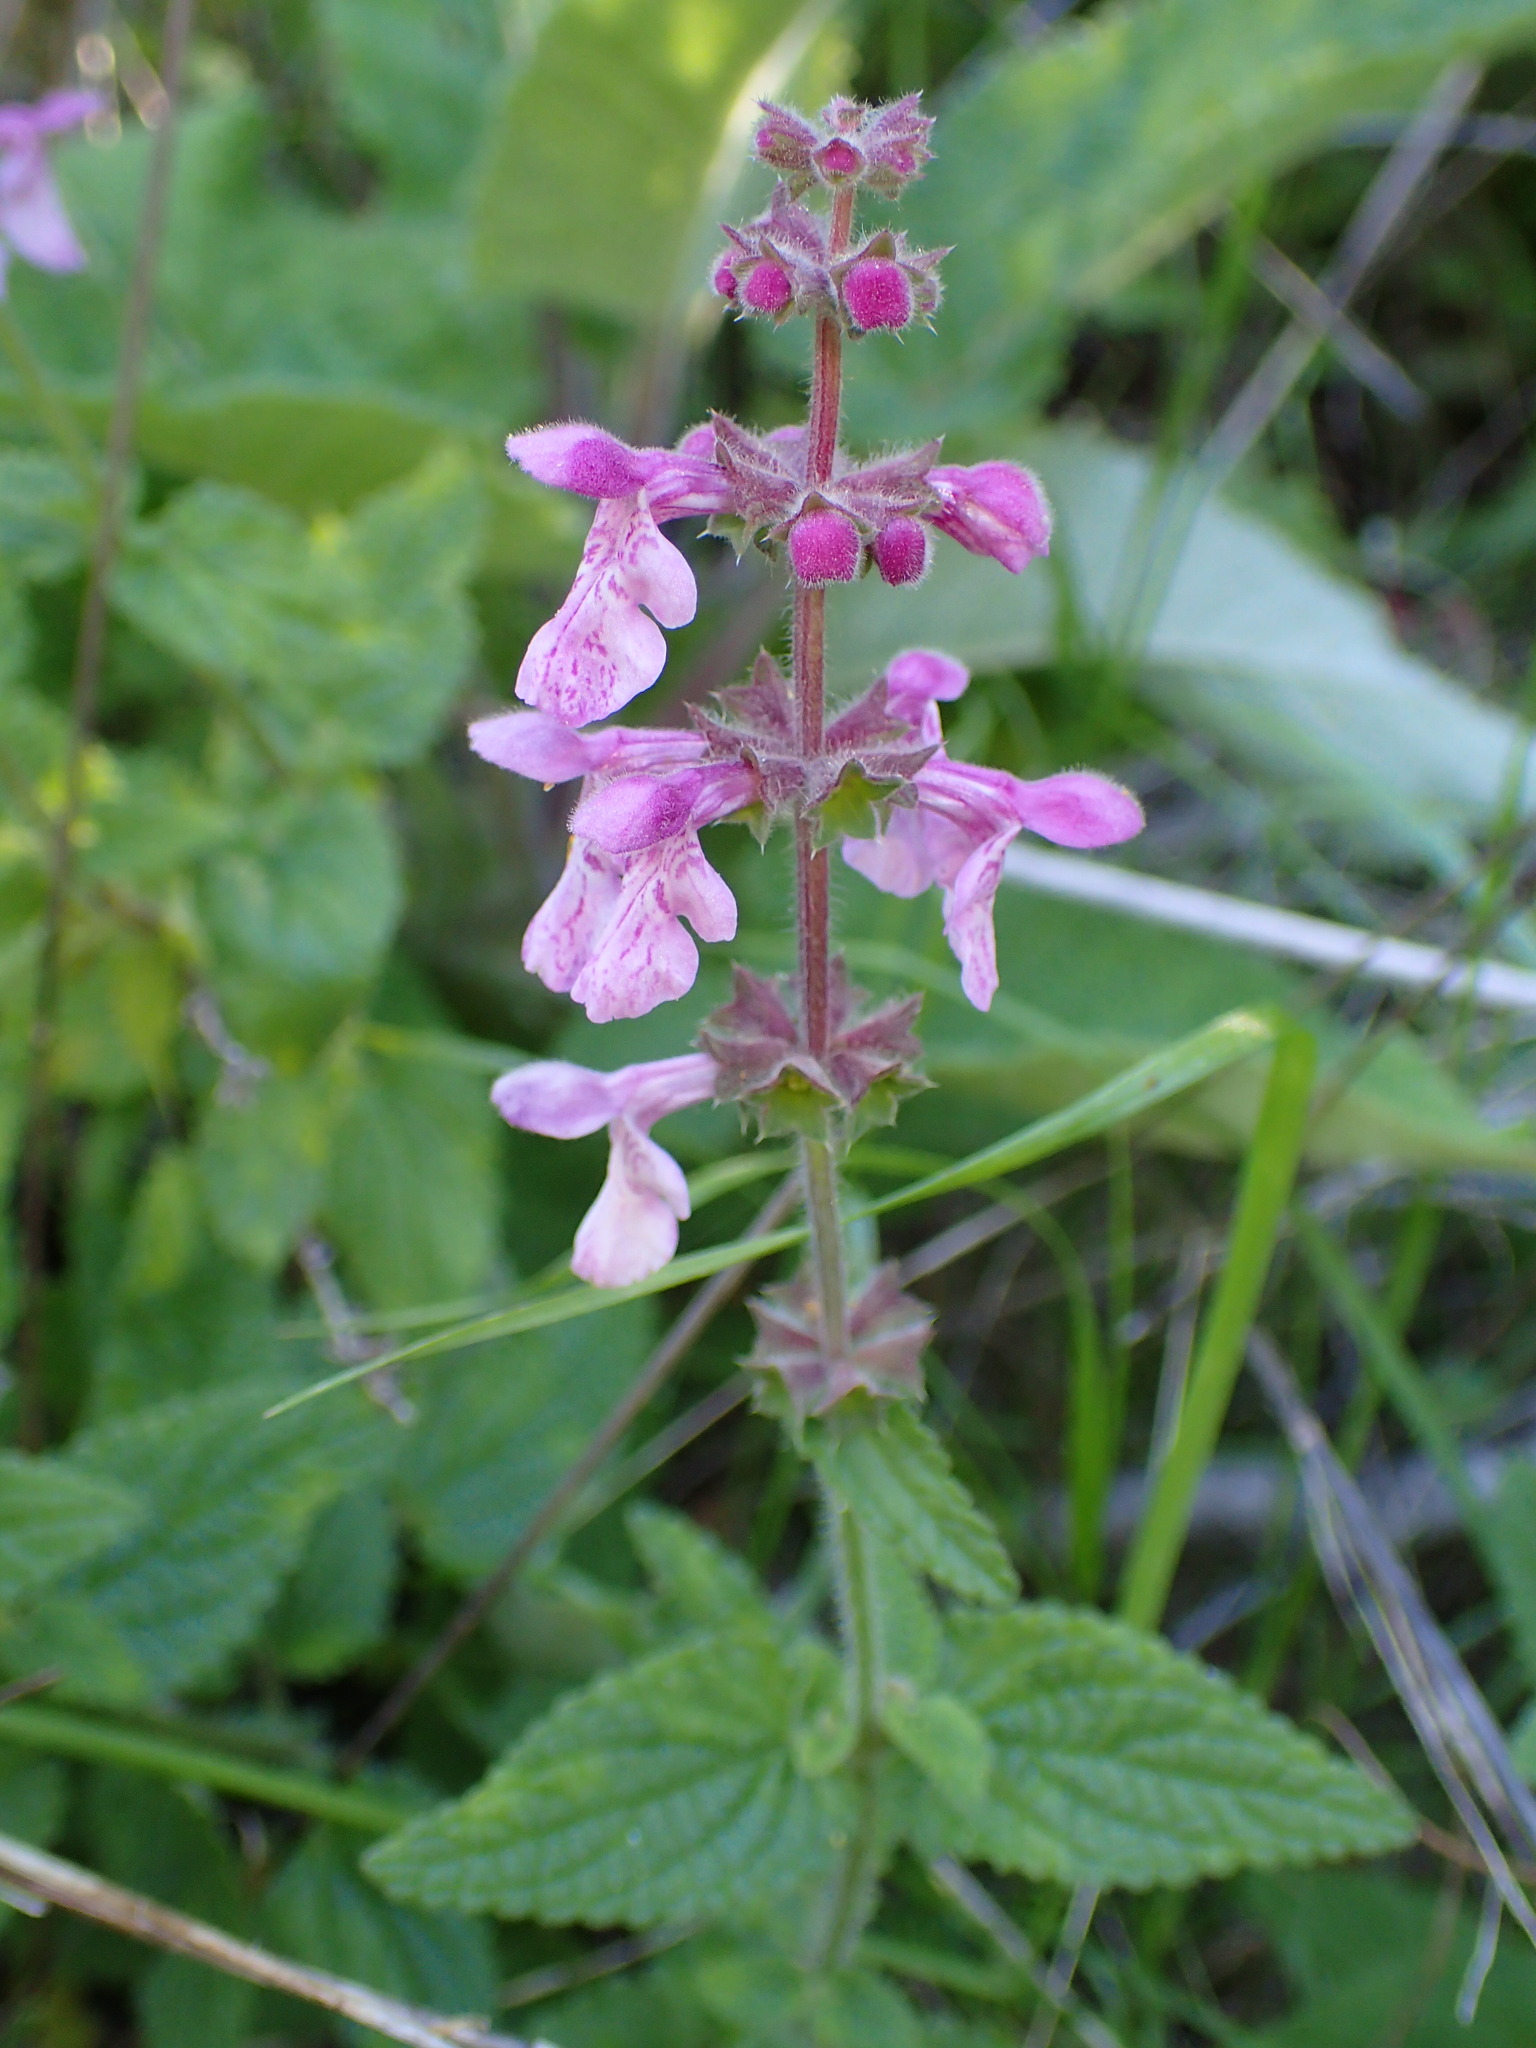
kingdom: Plantae
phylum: Tracheophyta
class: Magnoliopsida
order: Lamiales
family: Lamiaceae
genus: Stachys
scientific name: Stachys bullata
